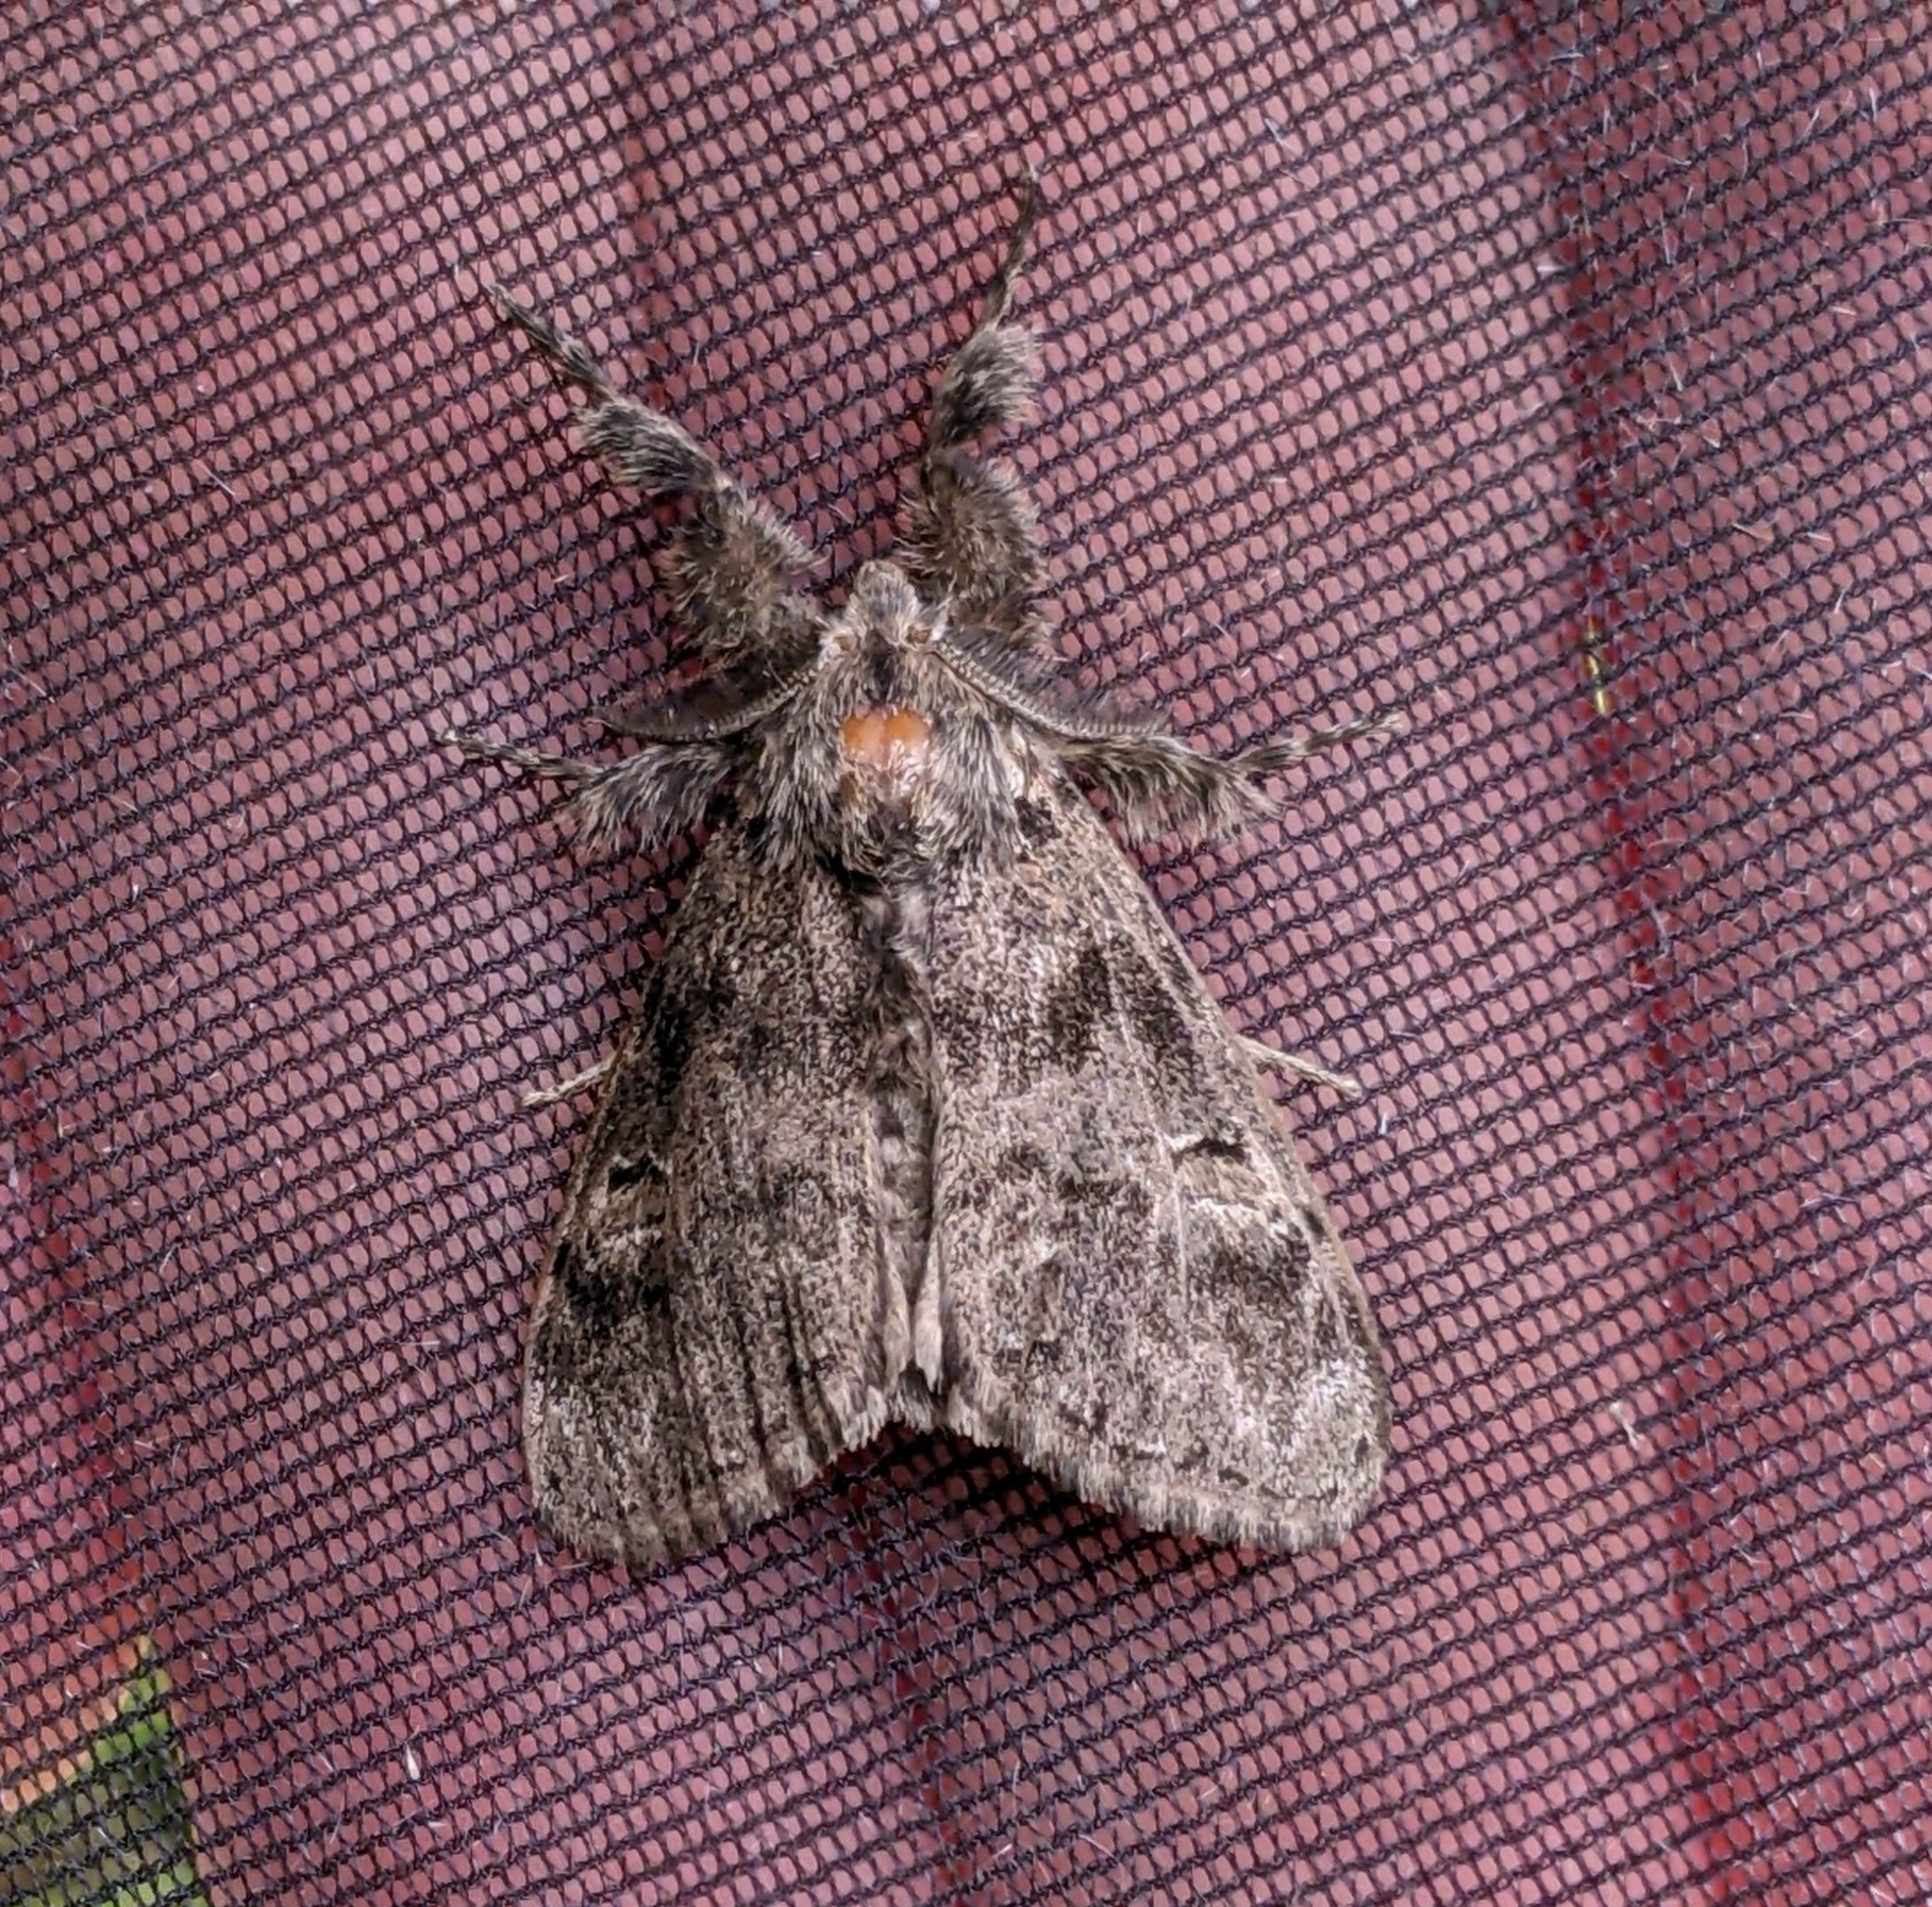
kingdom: Animalia
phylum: Arthropoda
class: Insecta
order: Lepidoptera
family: Erebidae
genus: Dasychira
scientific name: Dasychira grisefacta
